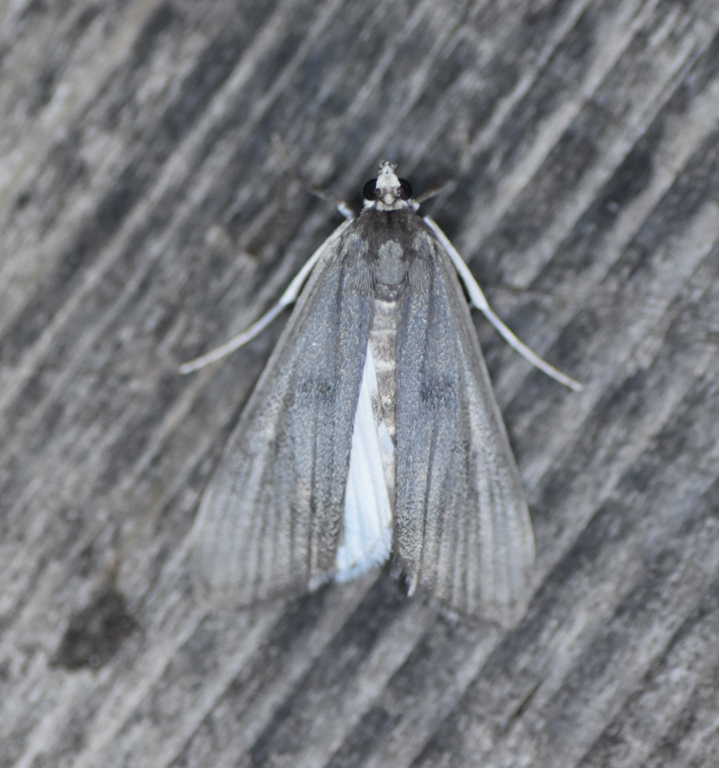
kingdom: Animalia
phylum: Arthropoda
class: Insecta
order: Lepidoptera
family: Crambidae
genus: Parapoynx
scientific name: Parapoynx maculalis
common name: Polymorphic pondweed moth
